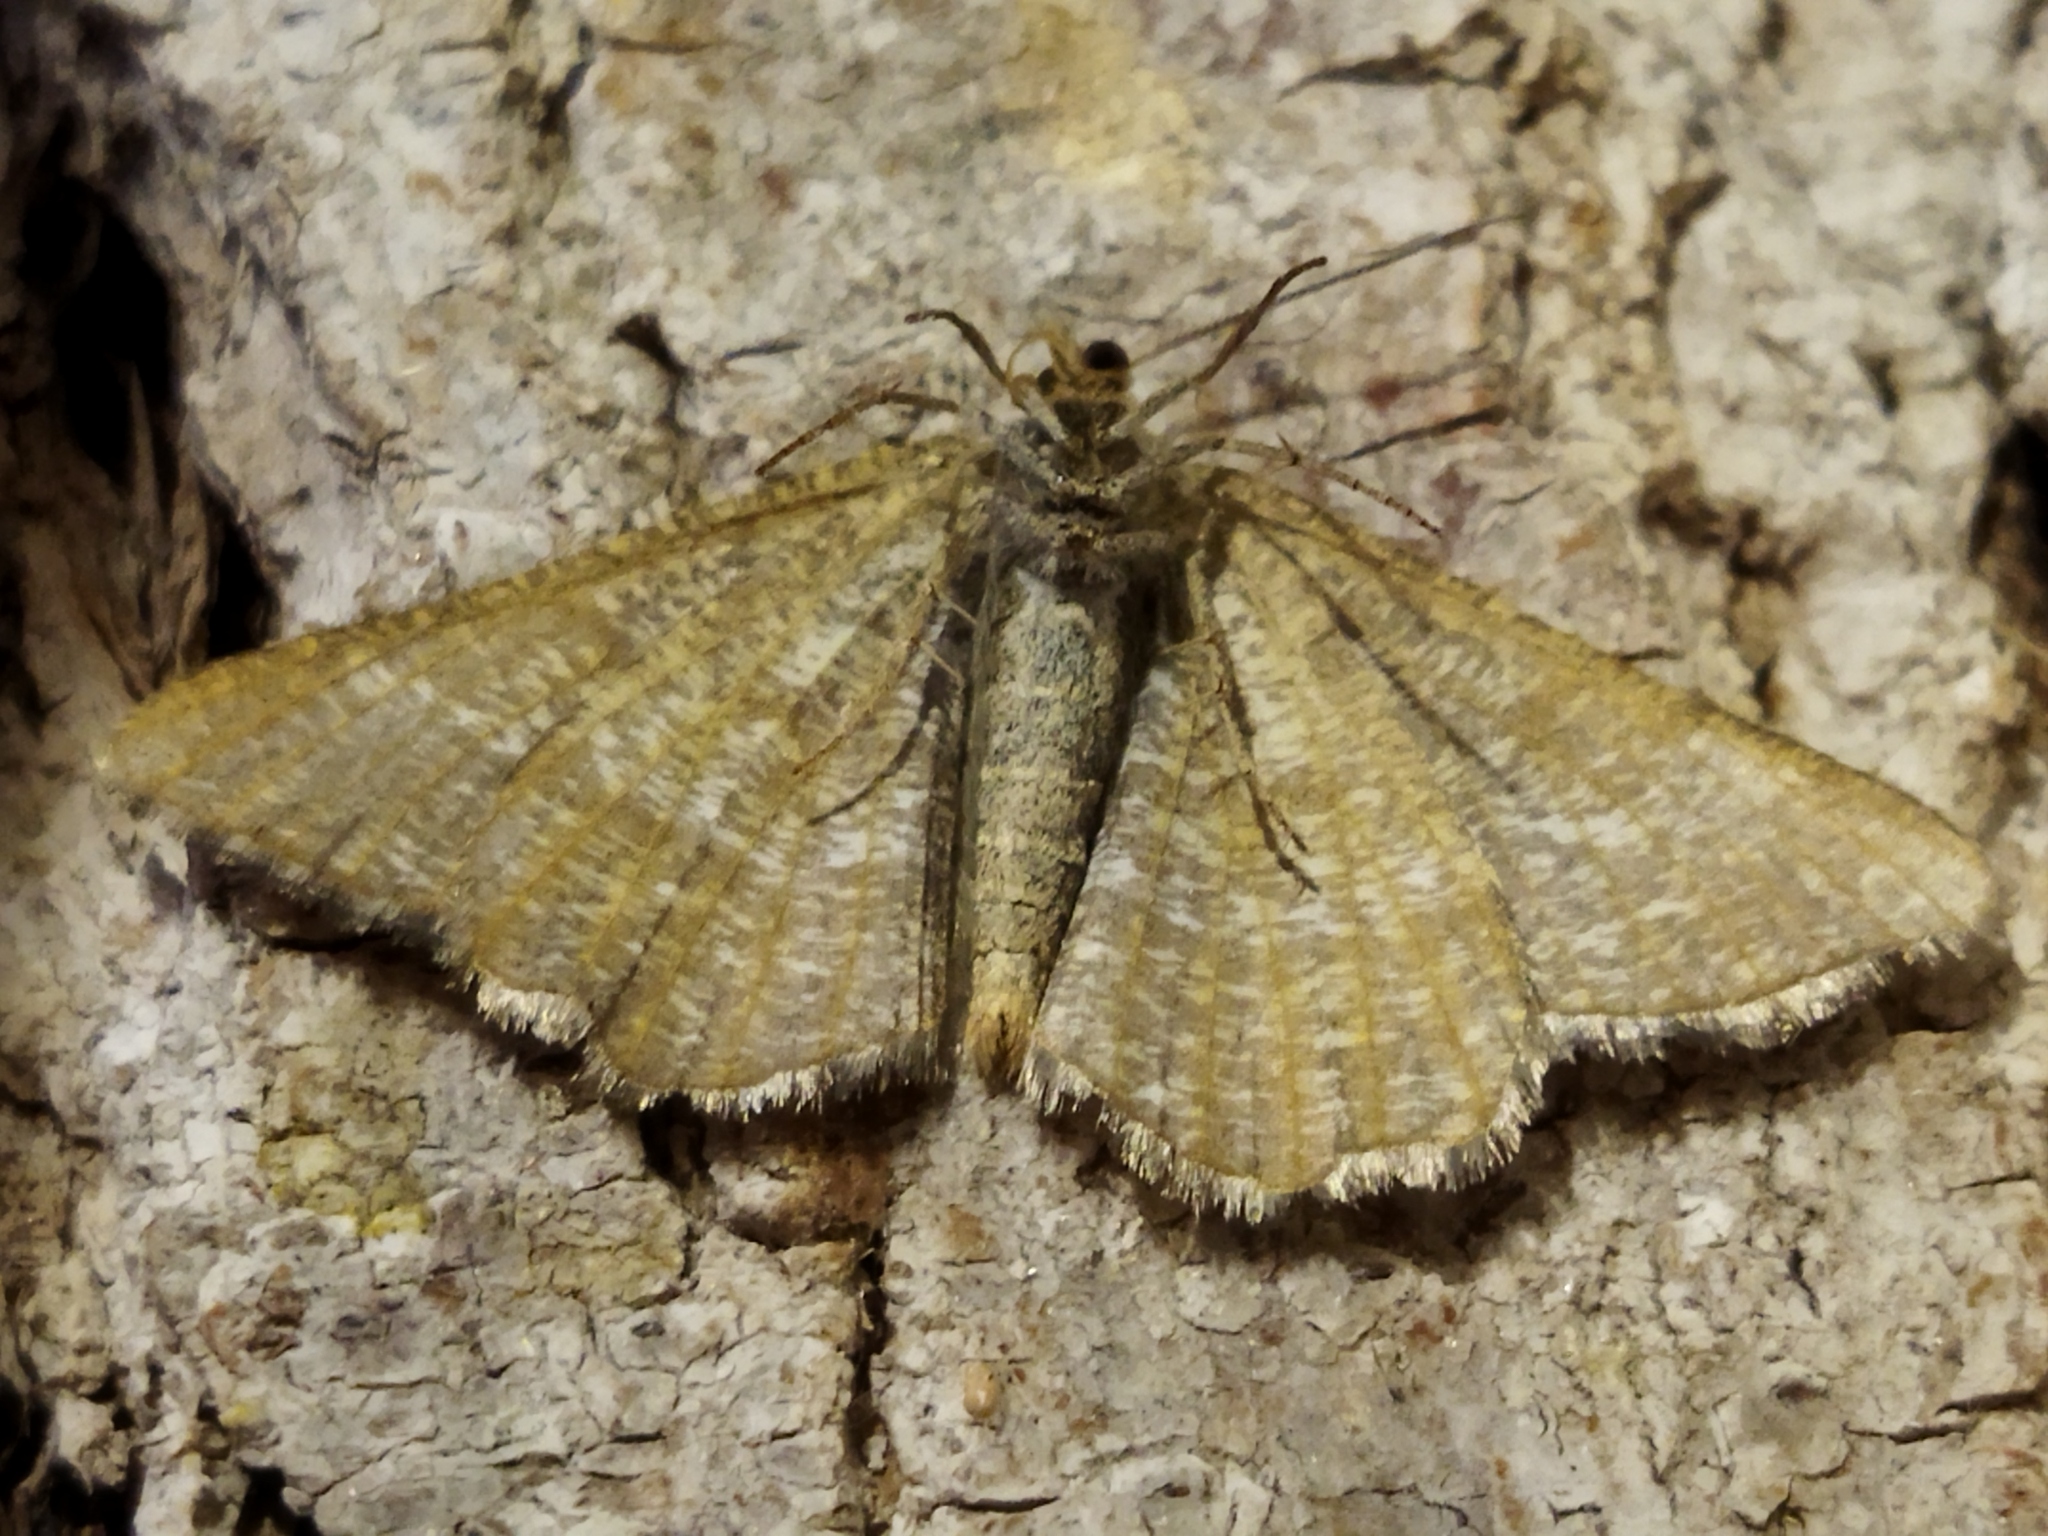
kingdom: Animalia
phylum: Arthropoda
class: Insecta
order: Lepidoptera
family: Geometridae
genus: Tephrina
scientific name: Tephrina murinaria
